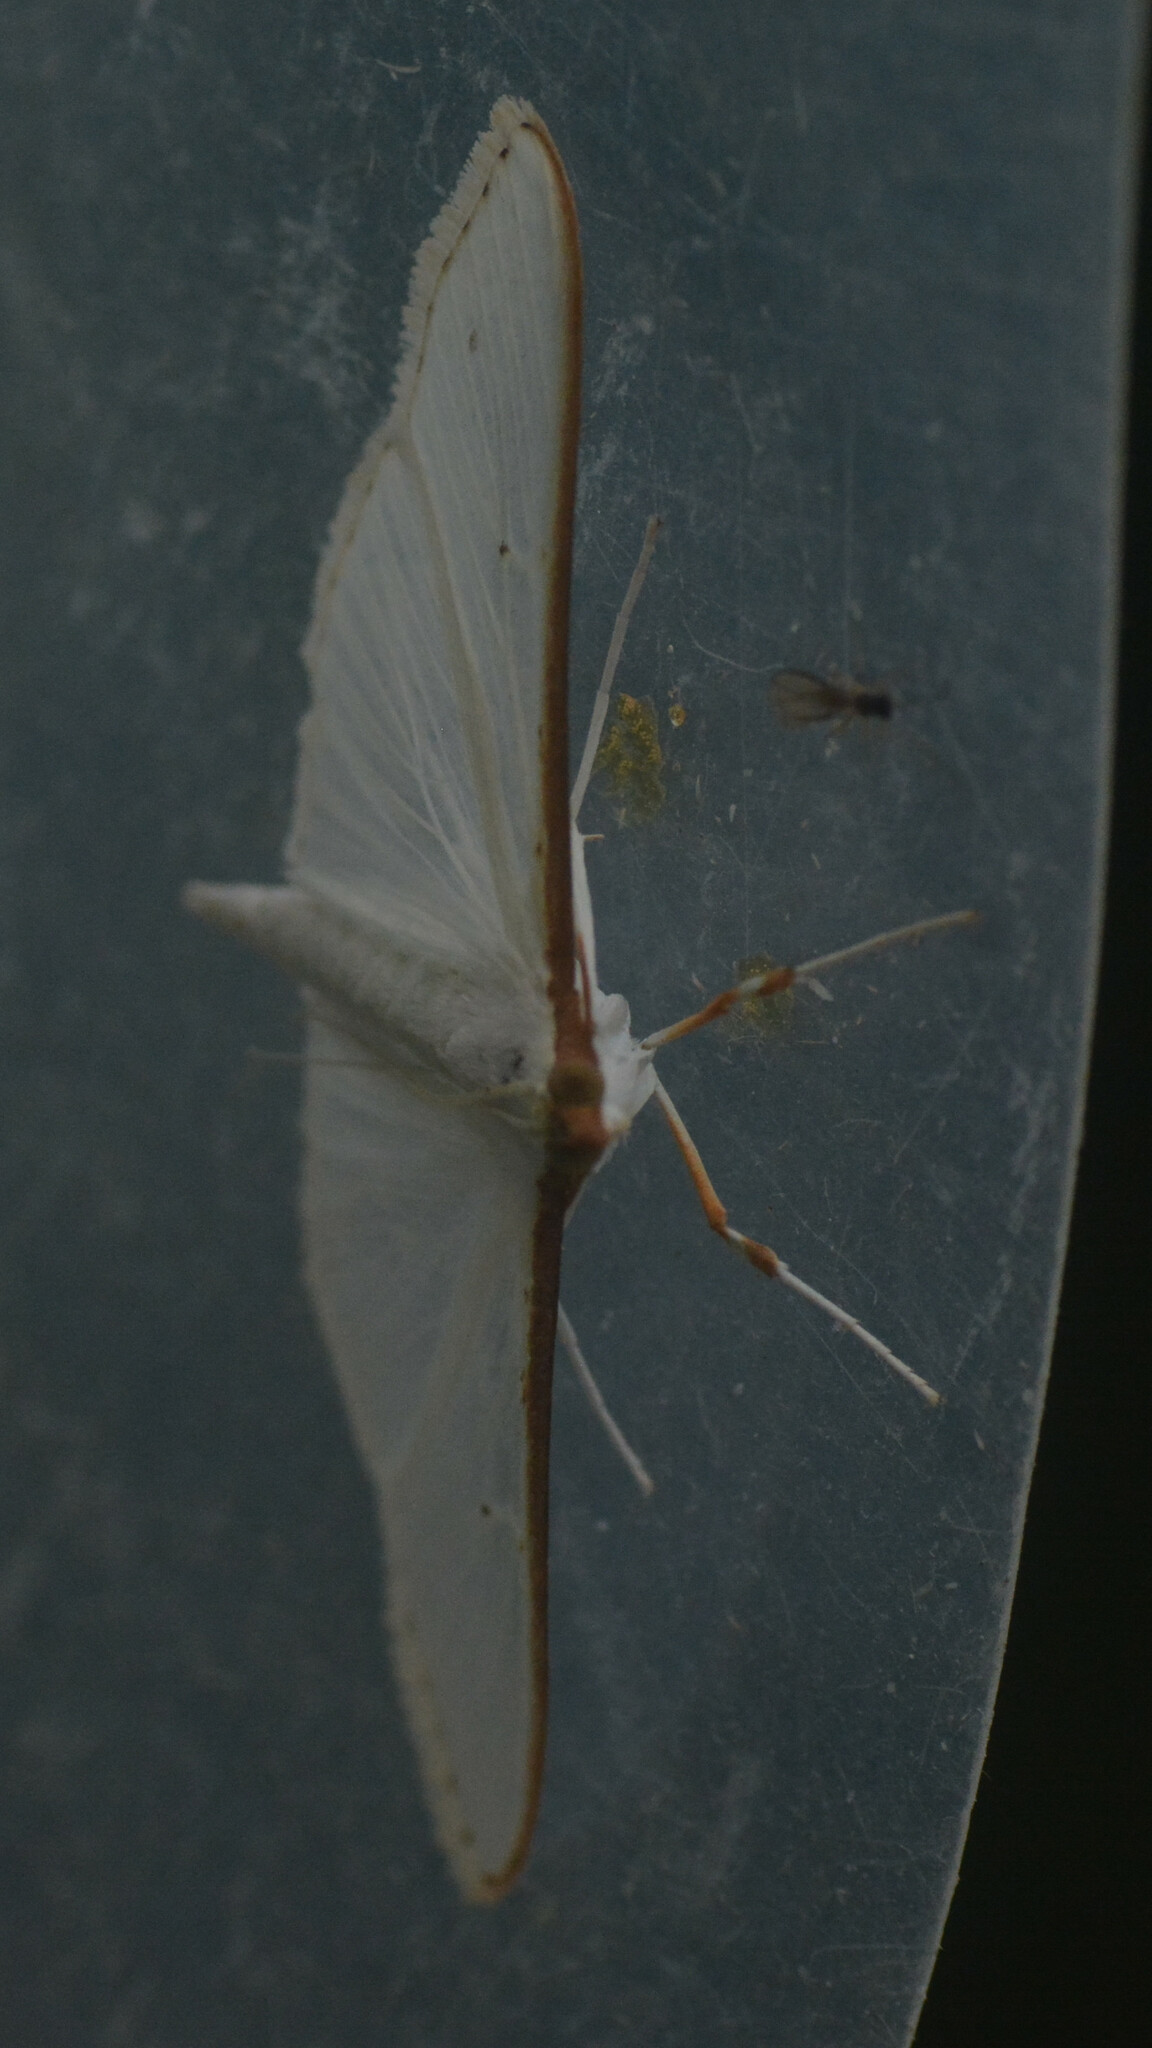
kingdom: Animalia
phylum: Arthropoda
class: Insecta
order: Lepidoptera
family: Crambidae
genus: Palpita
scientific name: Palpita vitrealis
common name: Olive-tree pearl
